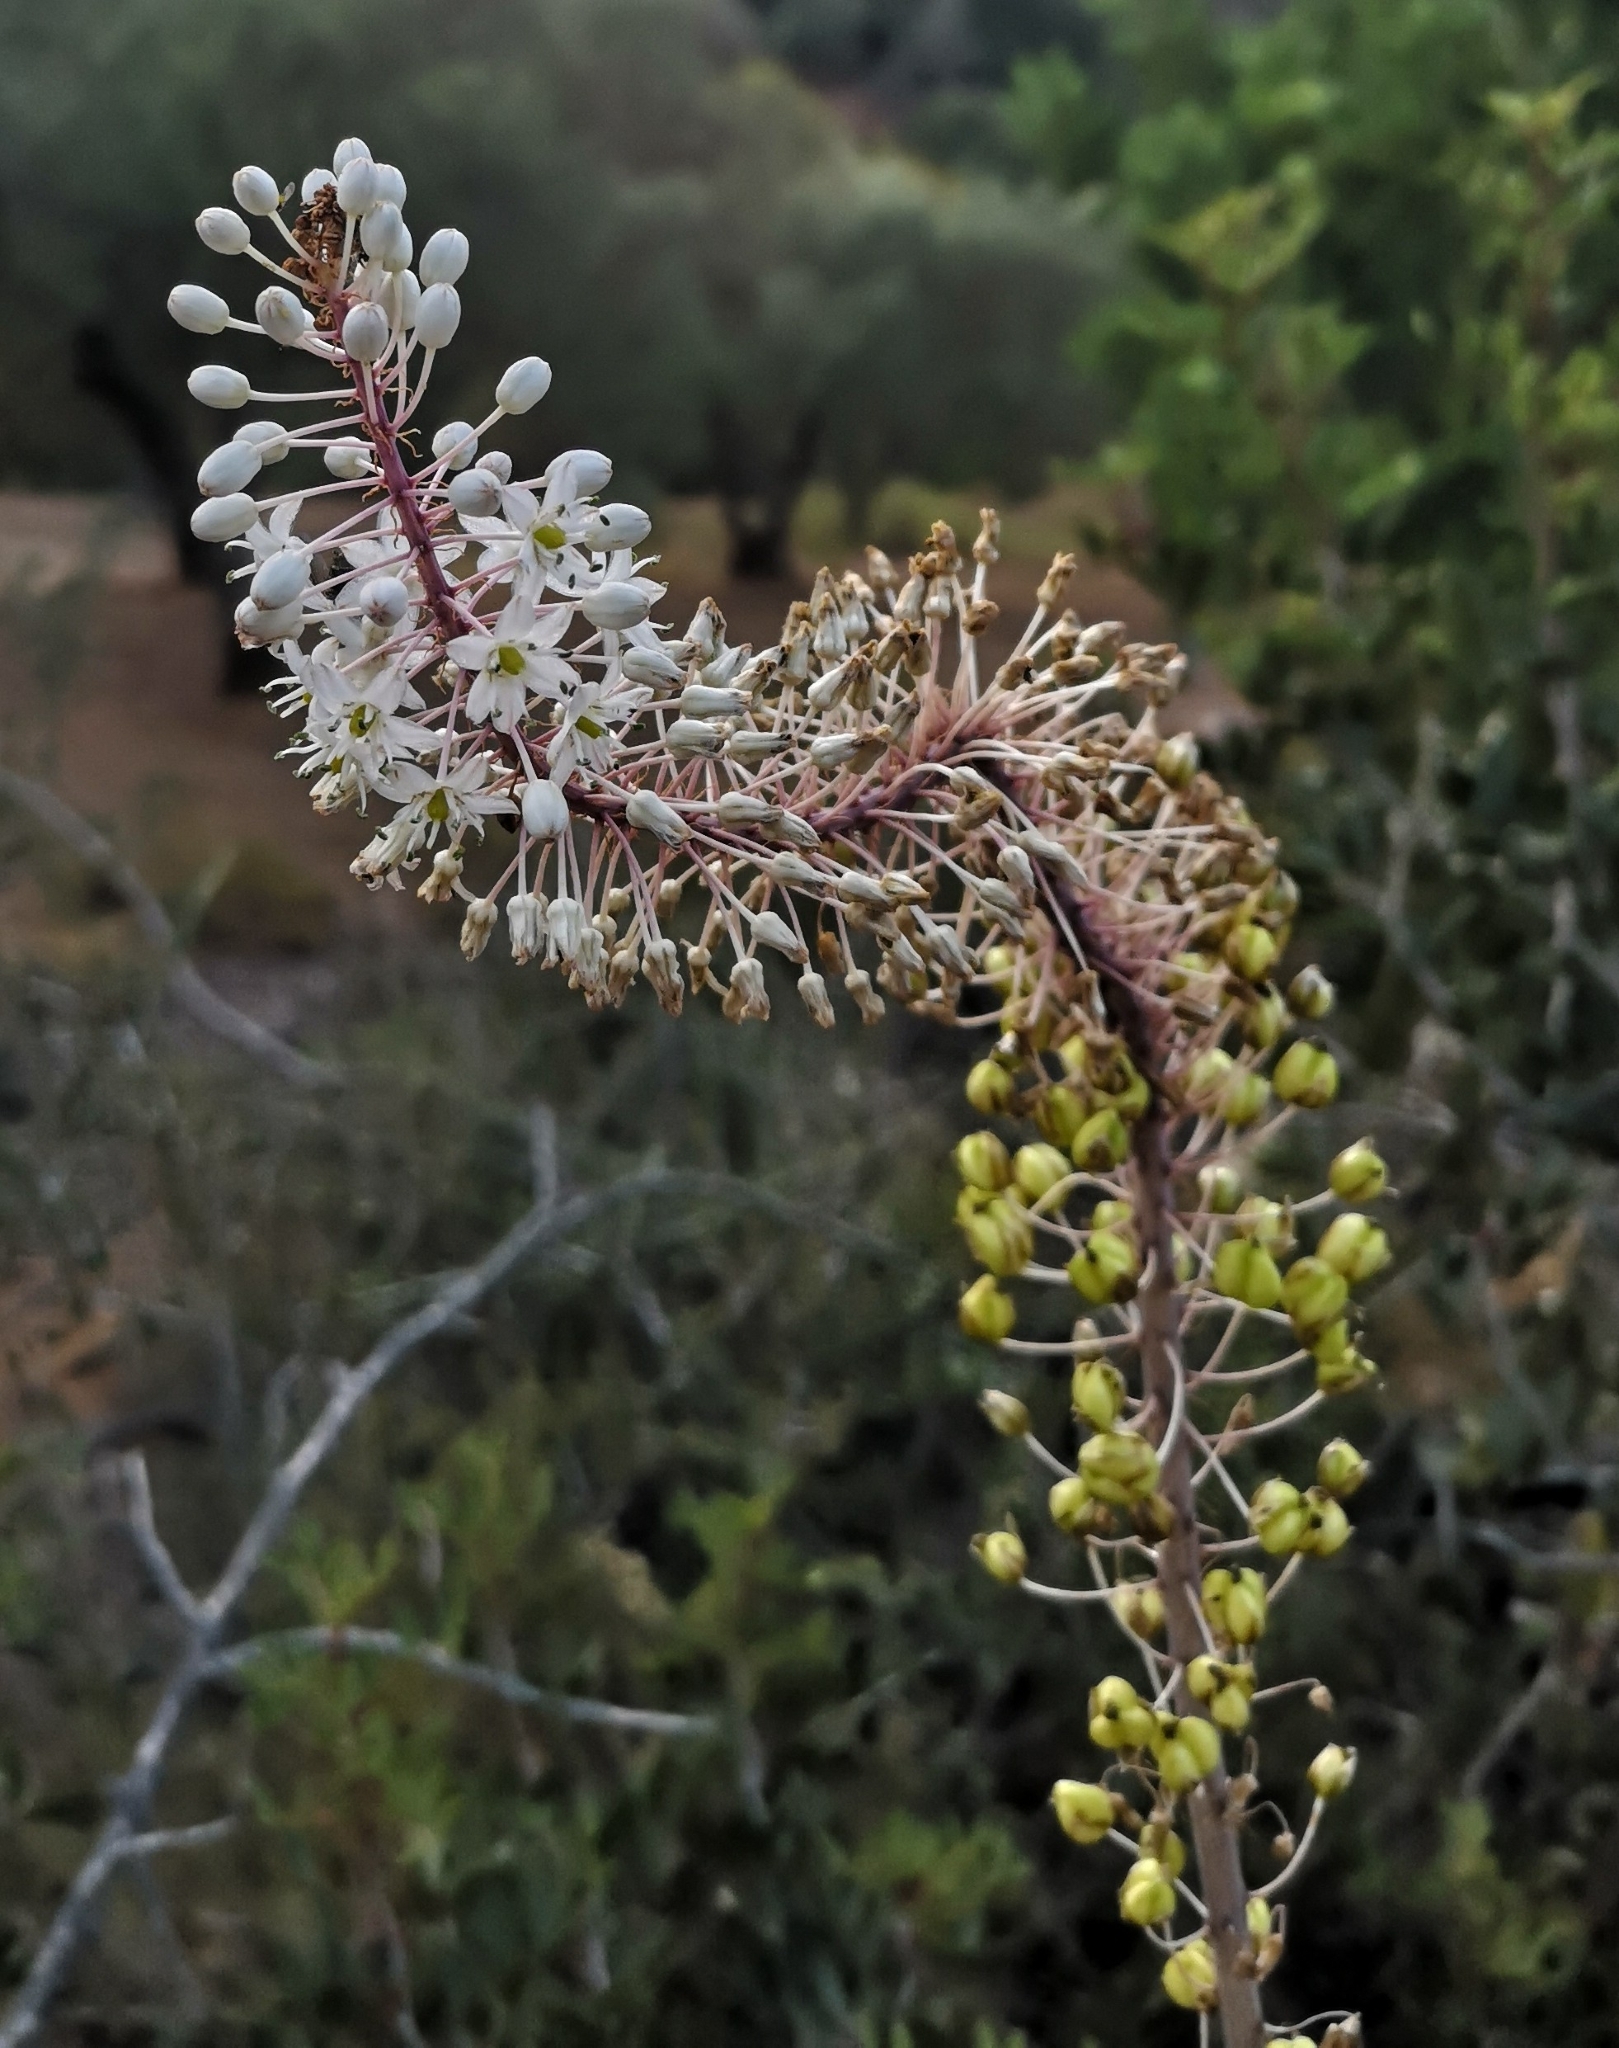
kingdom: Plantae
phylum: Tracheophyta
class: Liliopsida
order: Asparagales
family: Asparagaceae
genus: Drimia
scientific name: Drimia numidica
